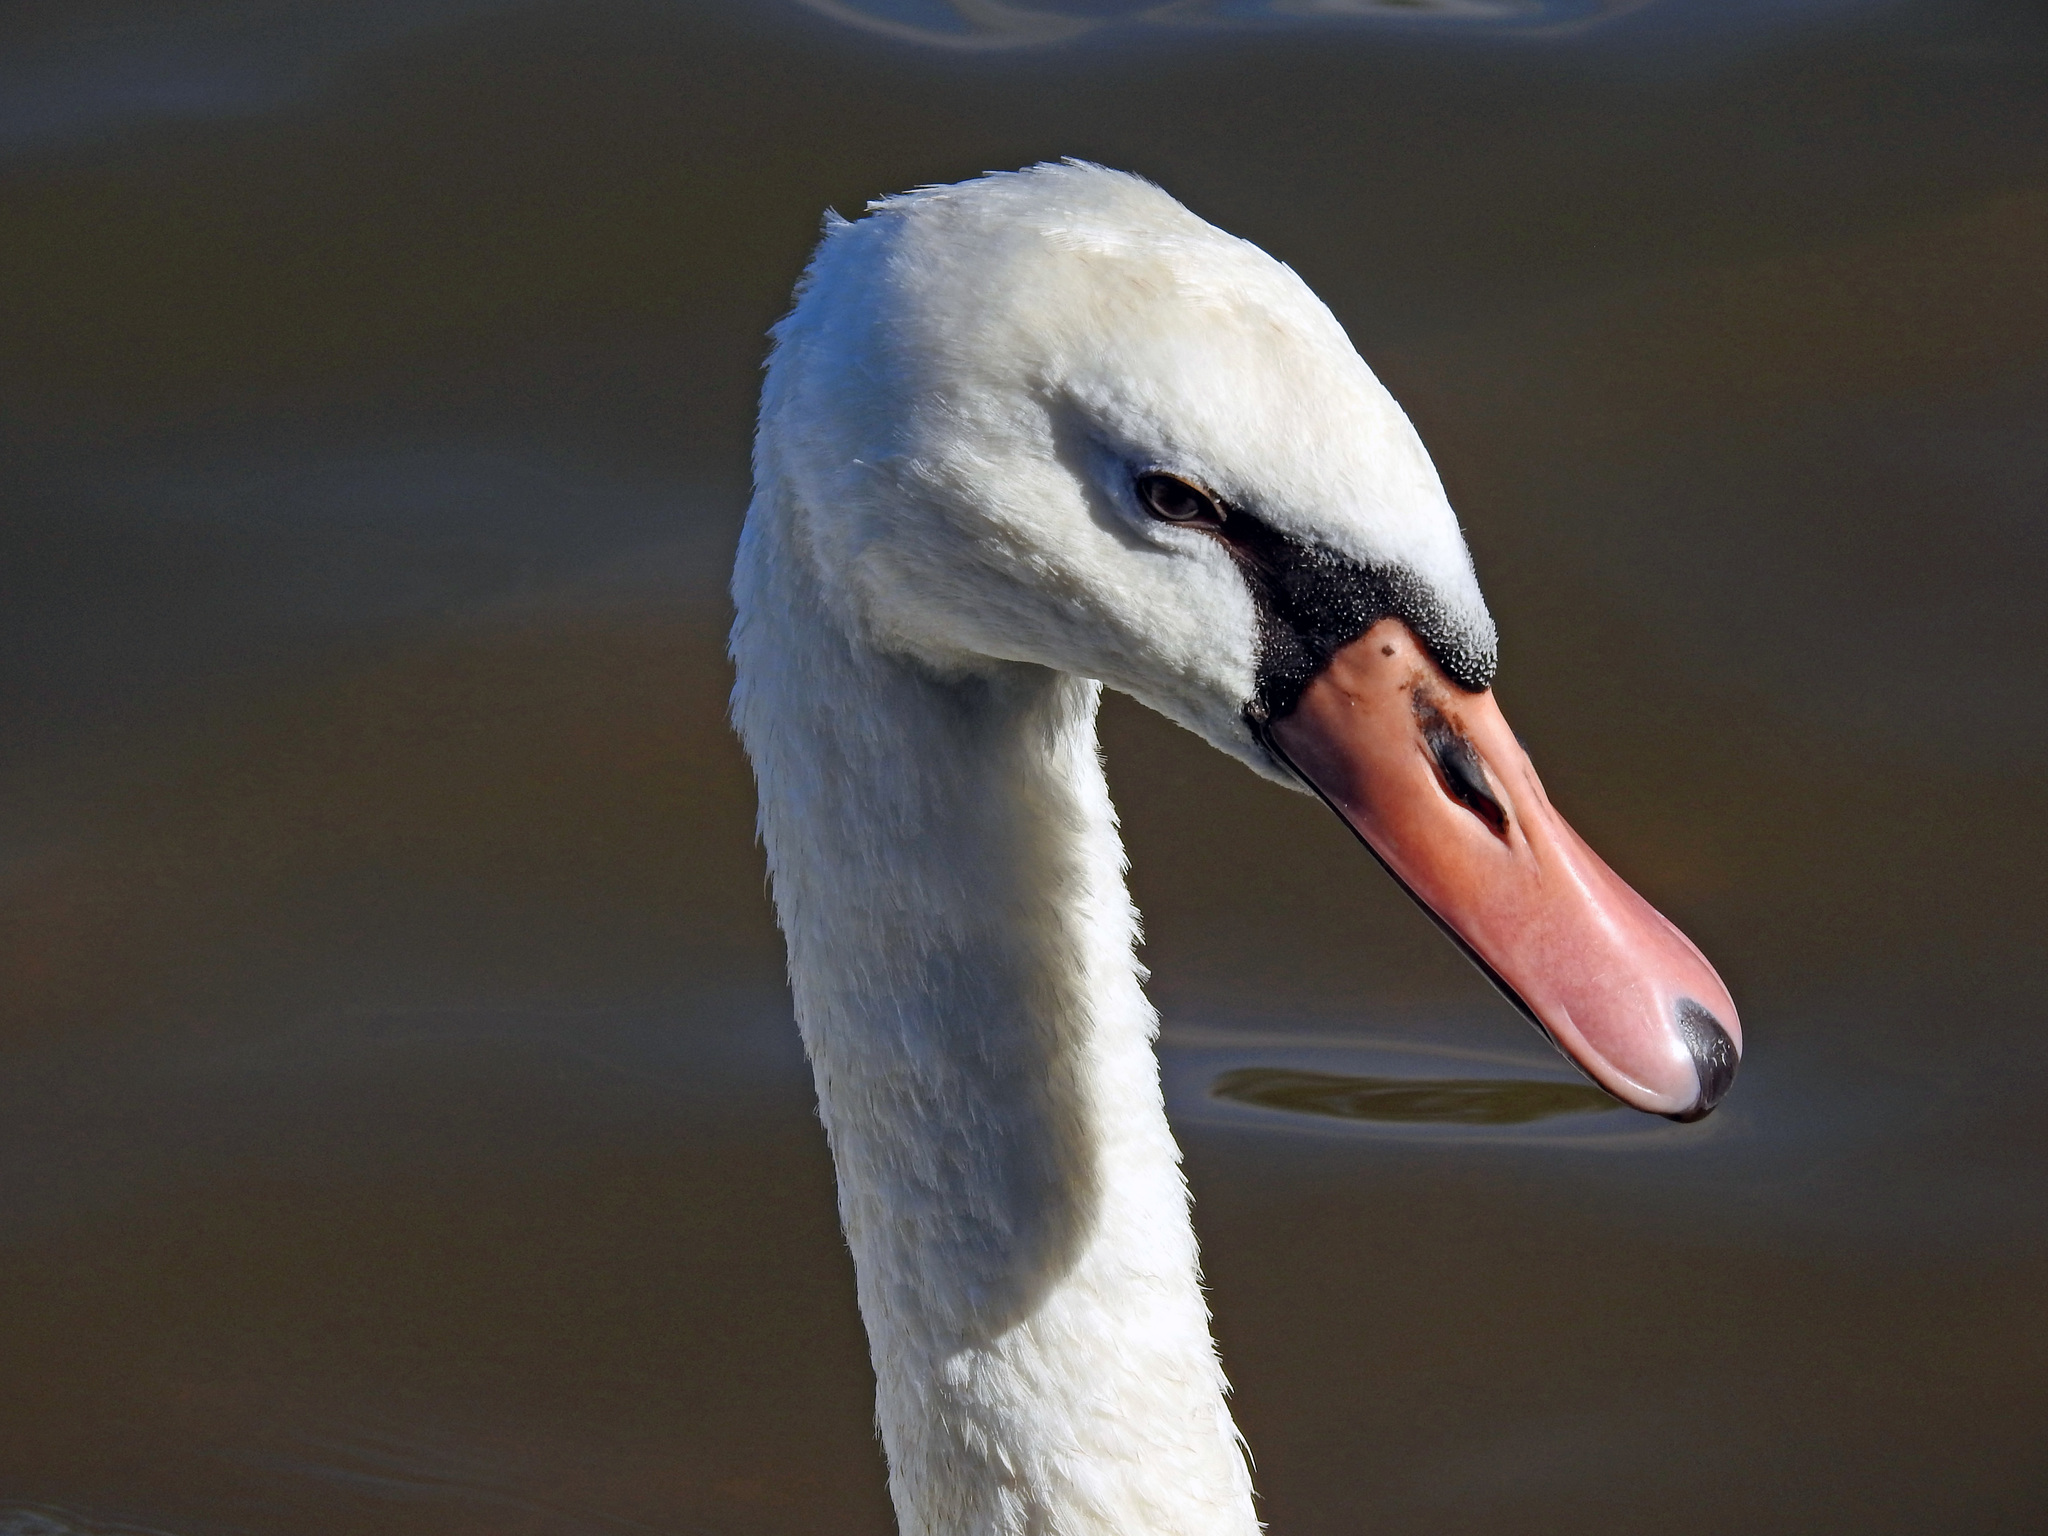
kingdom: Animalia
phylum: Chordata
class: Aves
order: Anseriformes
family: Anatidae
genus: Cygnus
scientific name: Cygnus olor
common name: Mute swan
